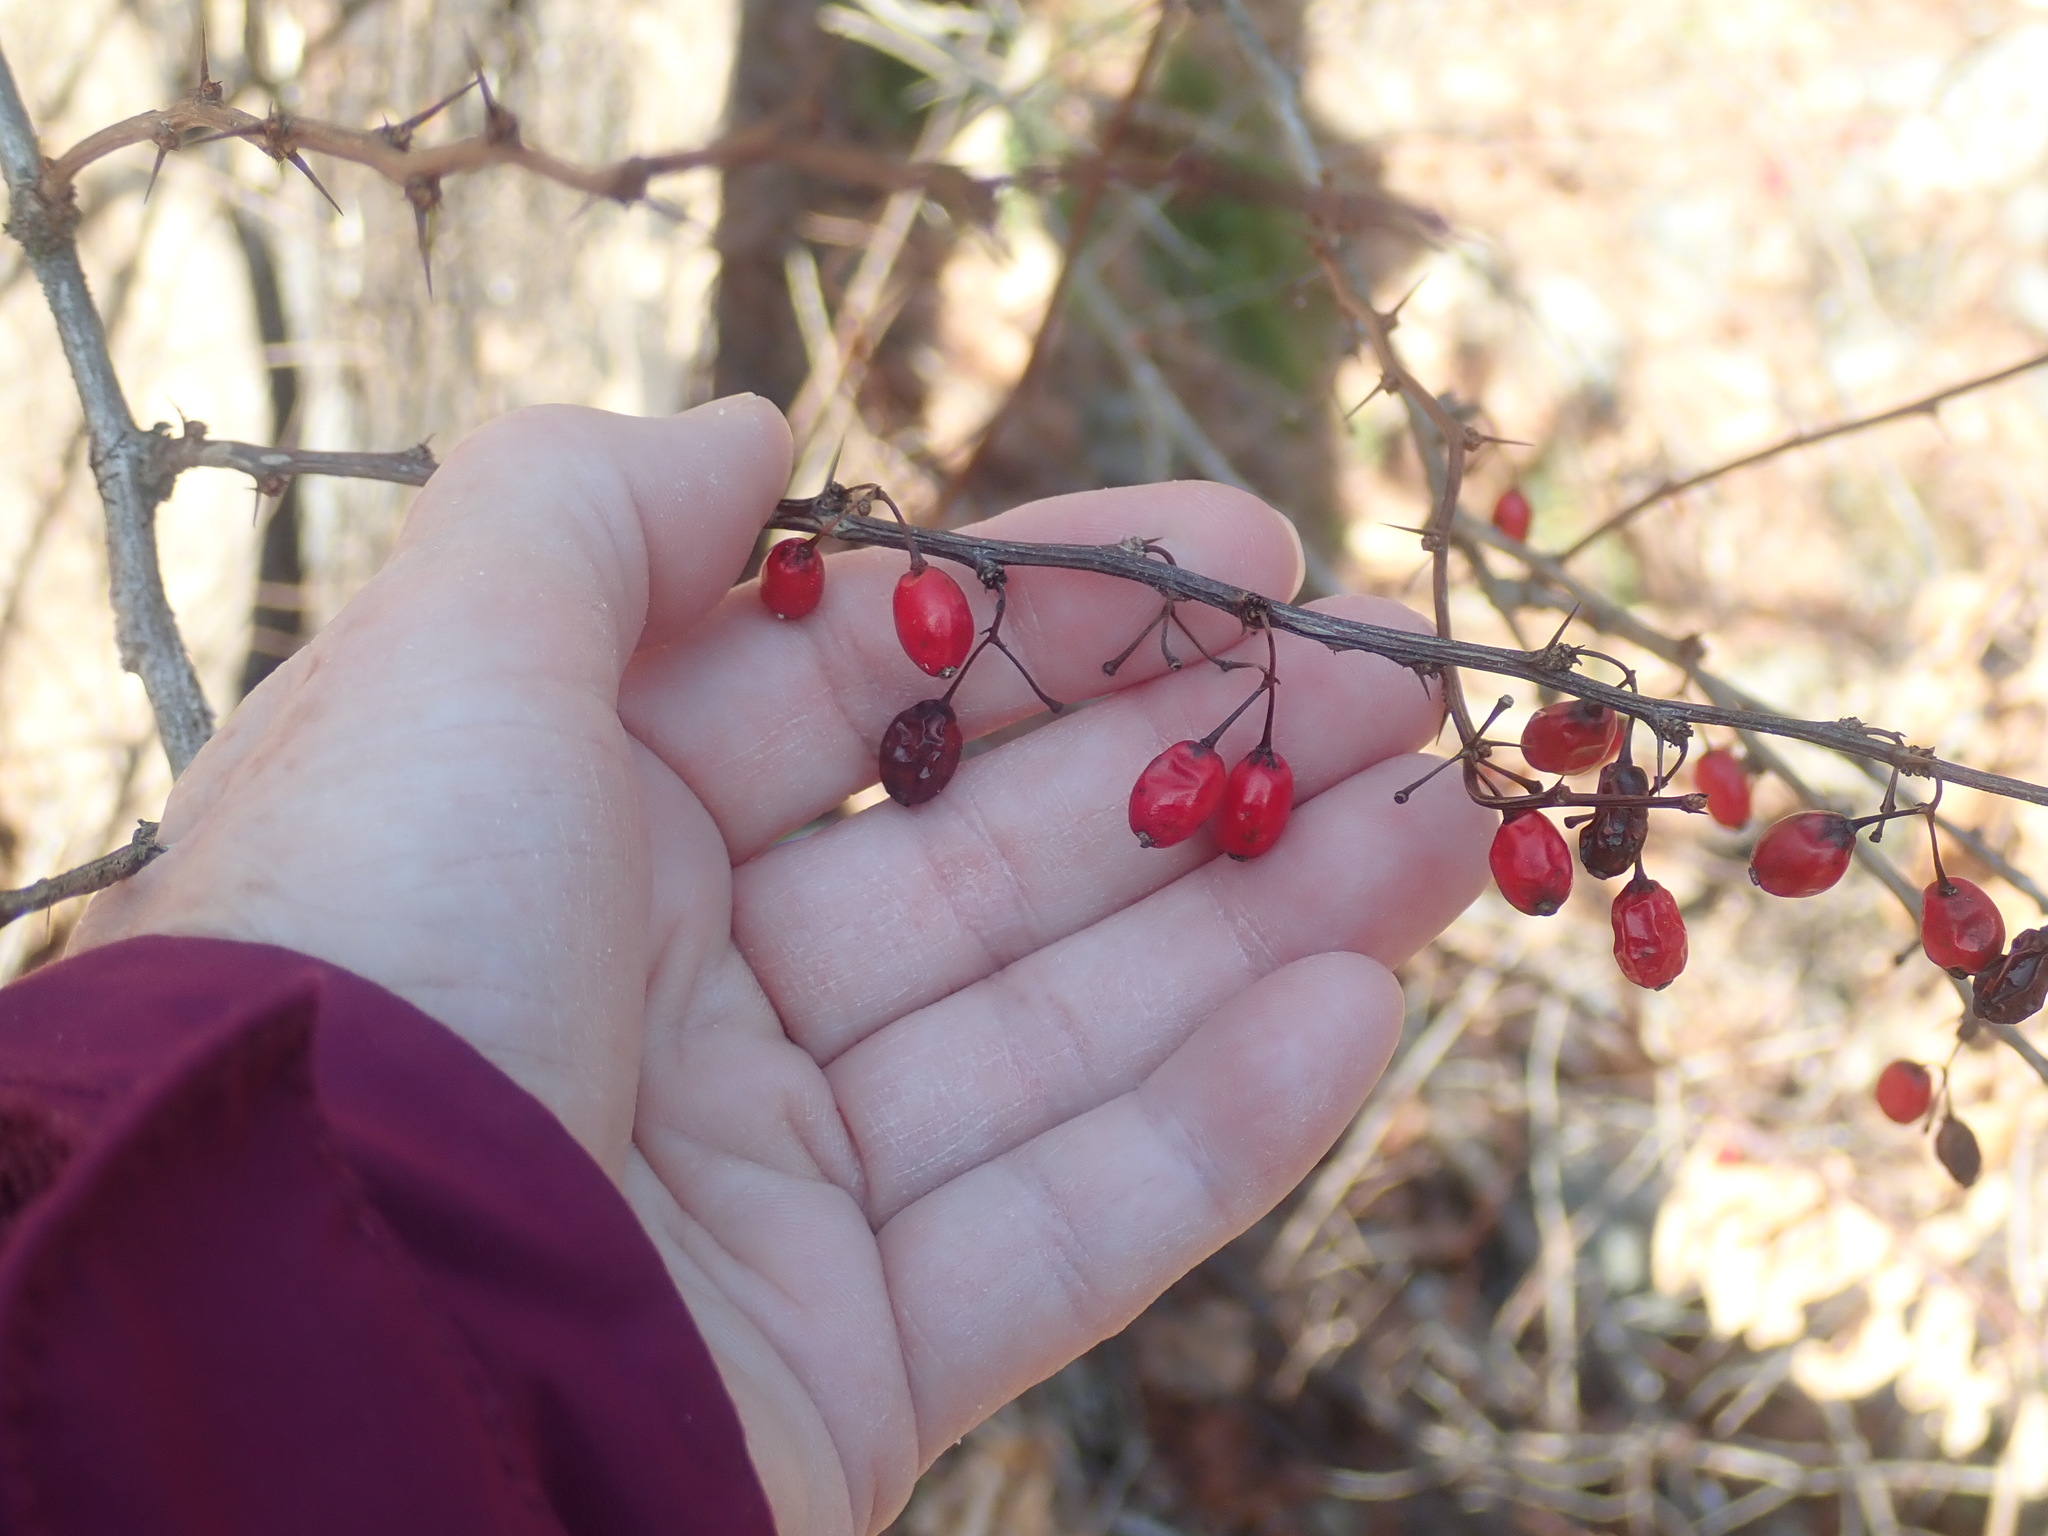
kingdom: Plantae
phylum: Tracheophyta
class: Magnoliopsida
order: Ranunculales
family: Berberidaceae
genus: Berberis
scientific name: Berberis thunbergii
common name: Japanese barberry
